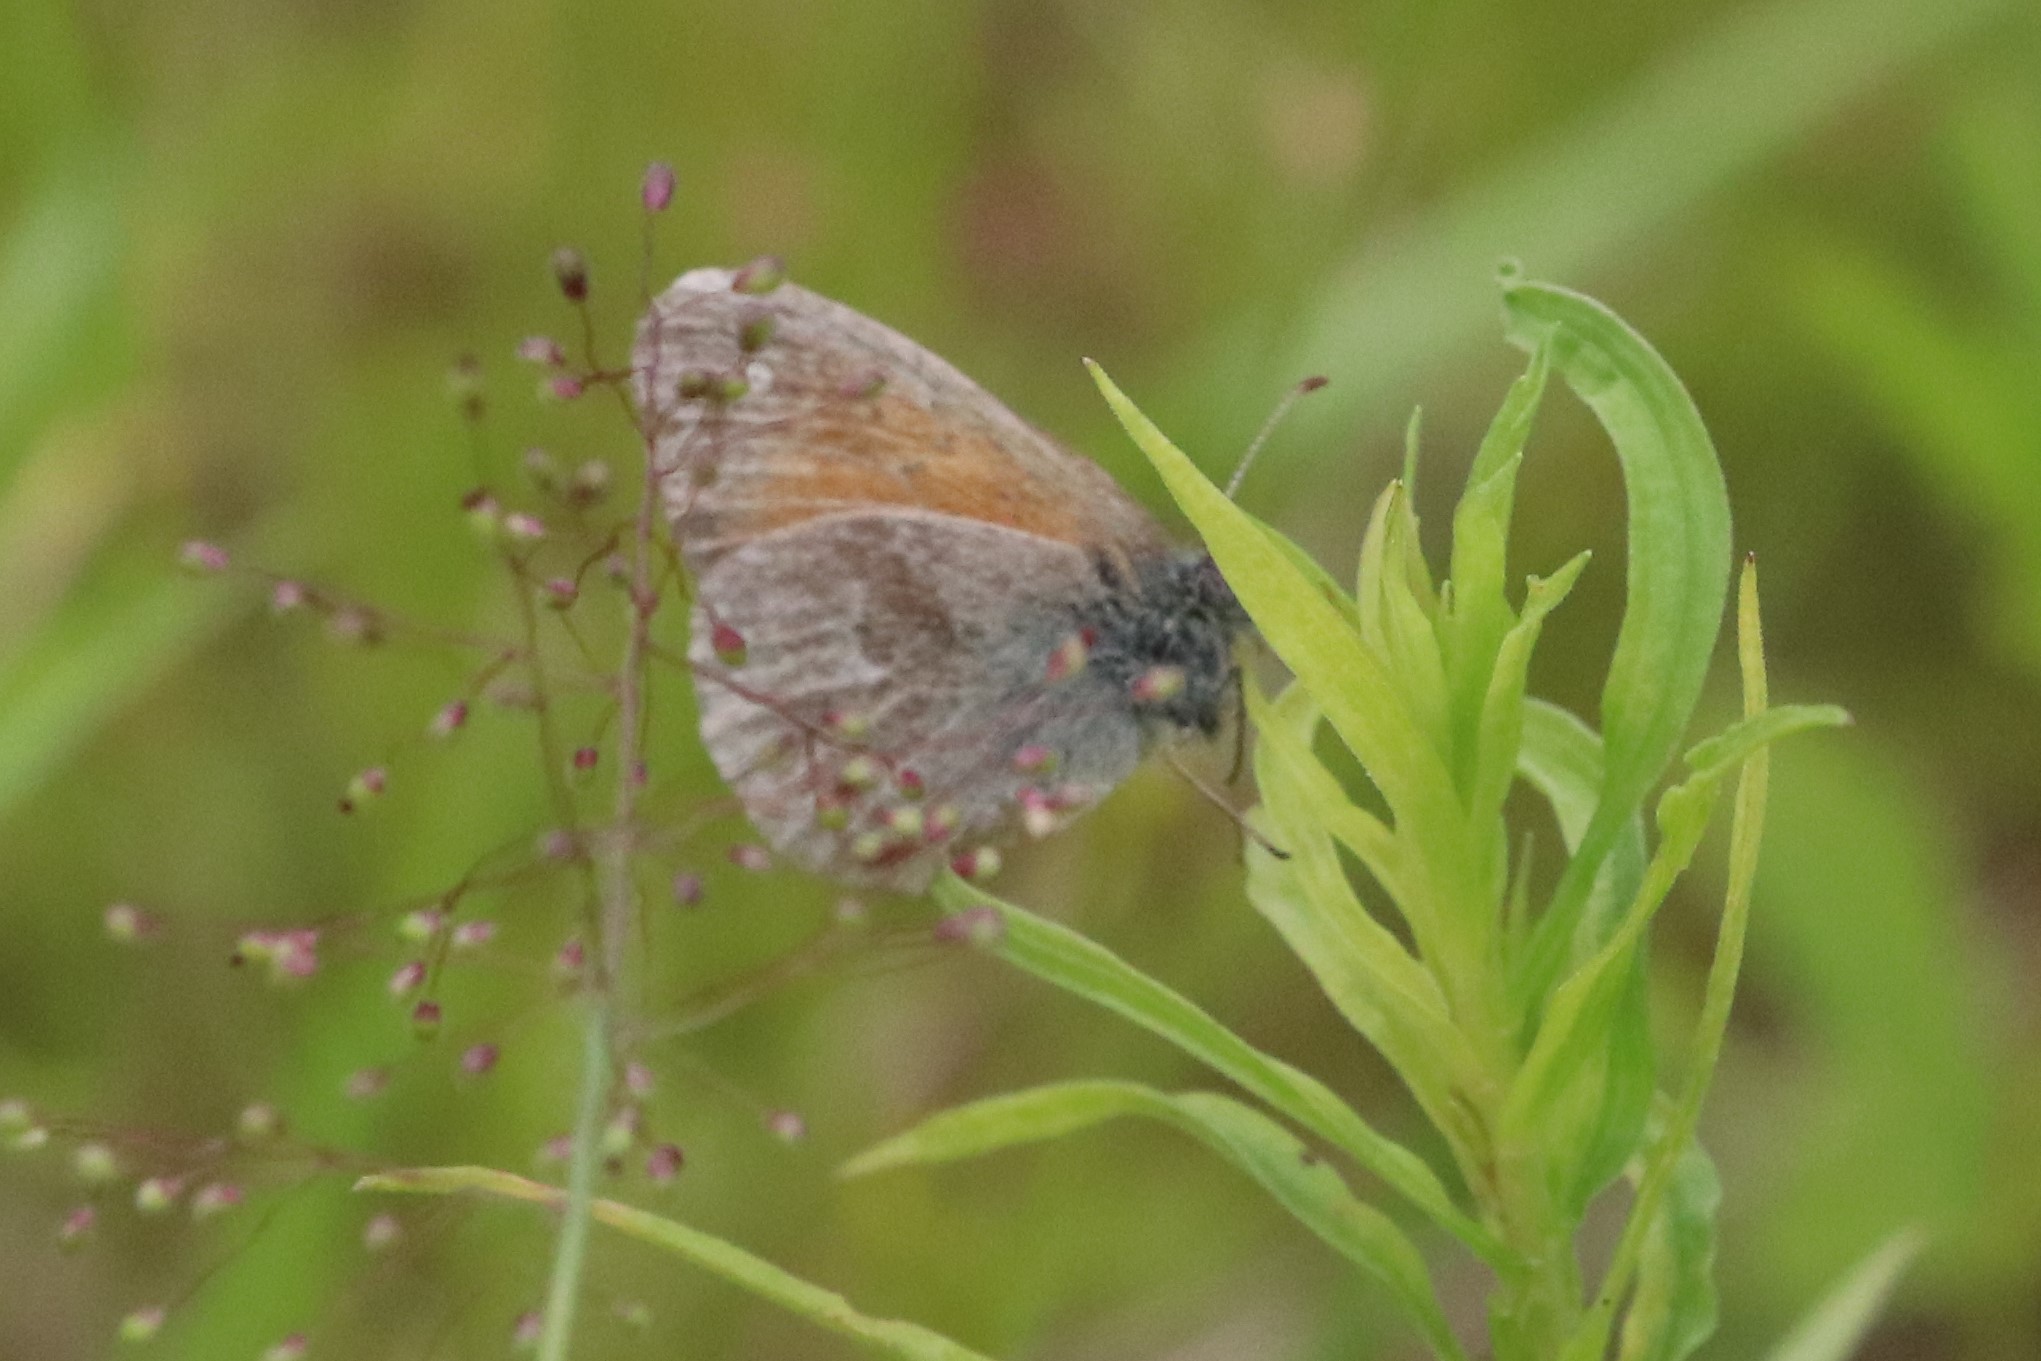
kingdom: Animalia
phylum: Arthropoda
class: Insecta
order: Lepidoptera
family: Nymphalidae
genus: Coenonympha
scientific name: Coenonympha california
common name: Common ringlet
